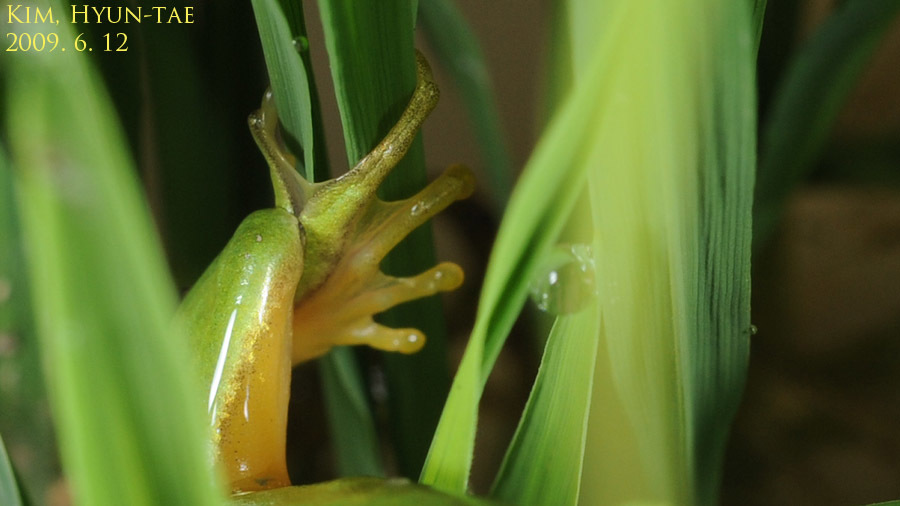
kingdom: Animalia
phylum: Chordata
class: Amphibia
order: Anura
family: Hylidae
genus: Dryophytes
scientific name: Dryophytes immaculatus
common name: North china treefrog
